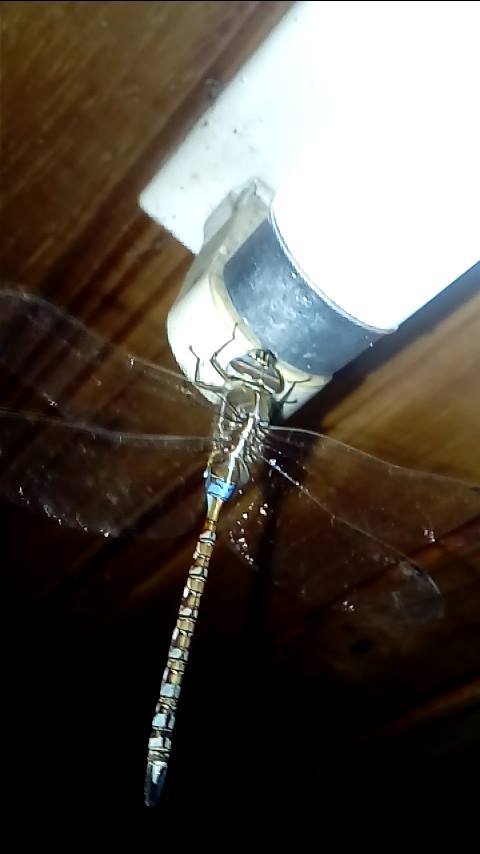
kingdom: Animalia
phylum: Arthropoda
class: Insecta
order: Odonata
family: Aeshnidae
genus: Rhionaeschna
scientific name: Rhionaeschna bonariensis
